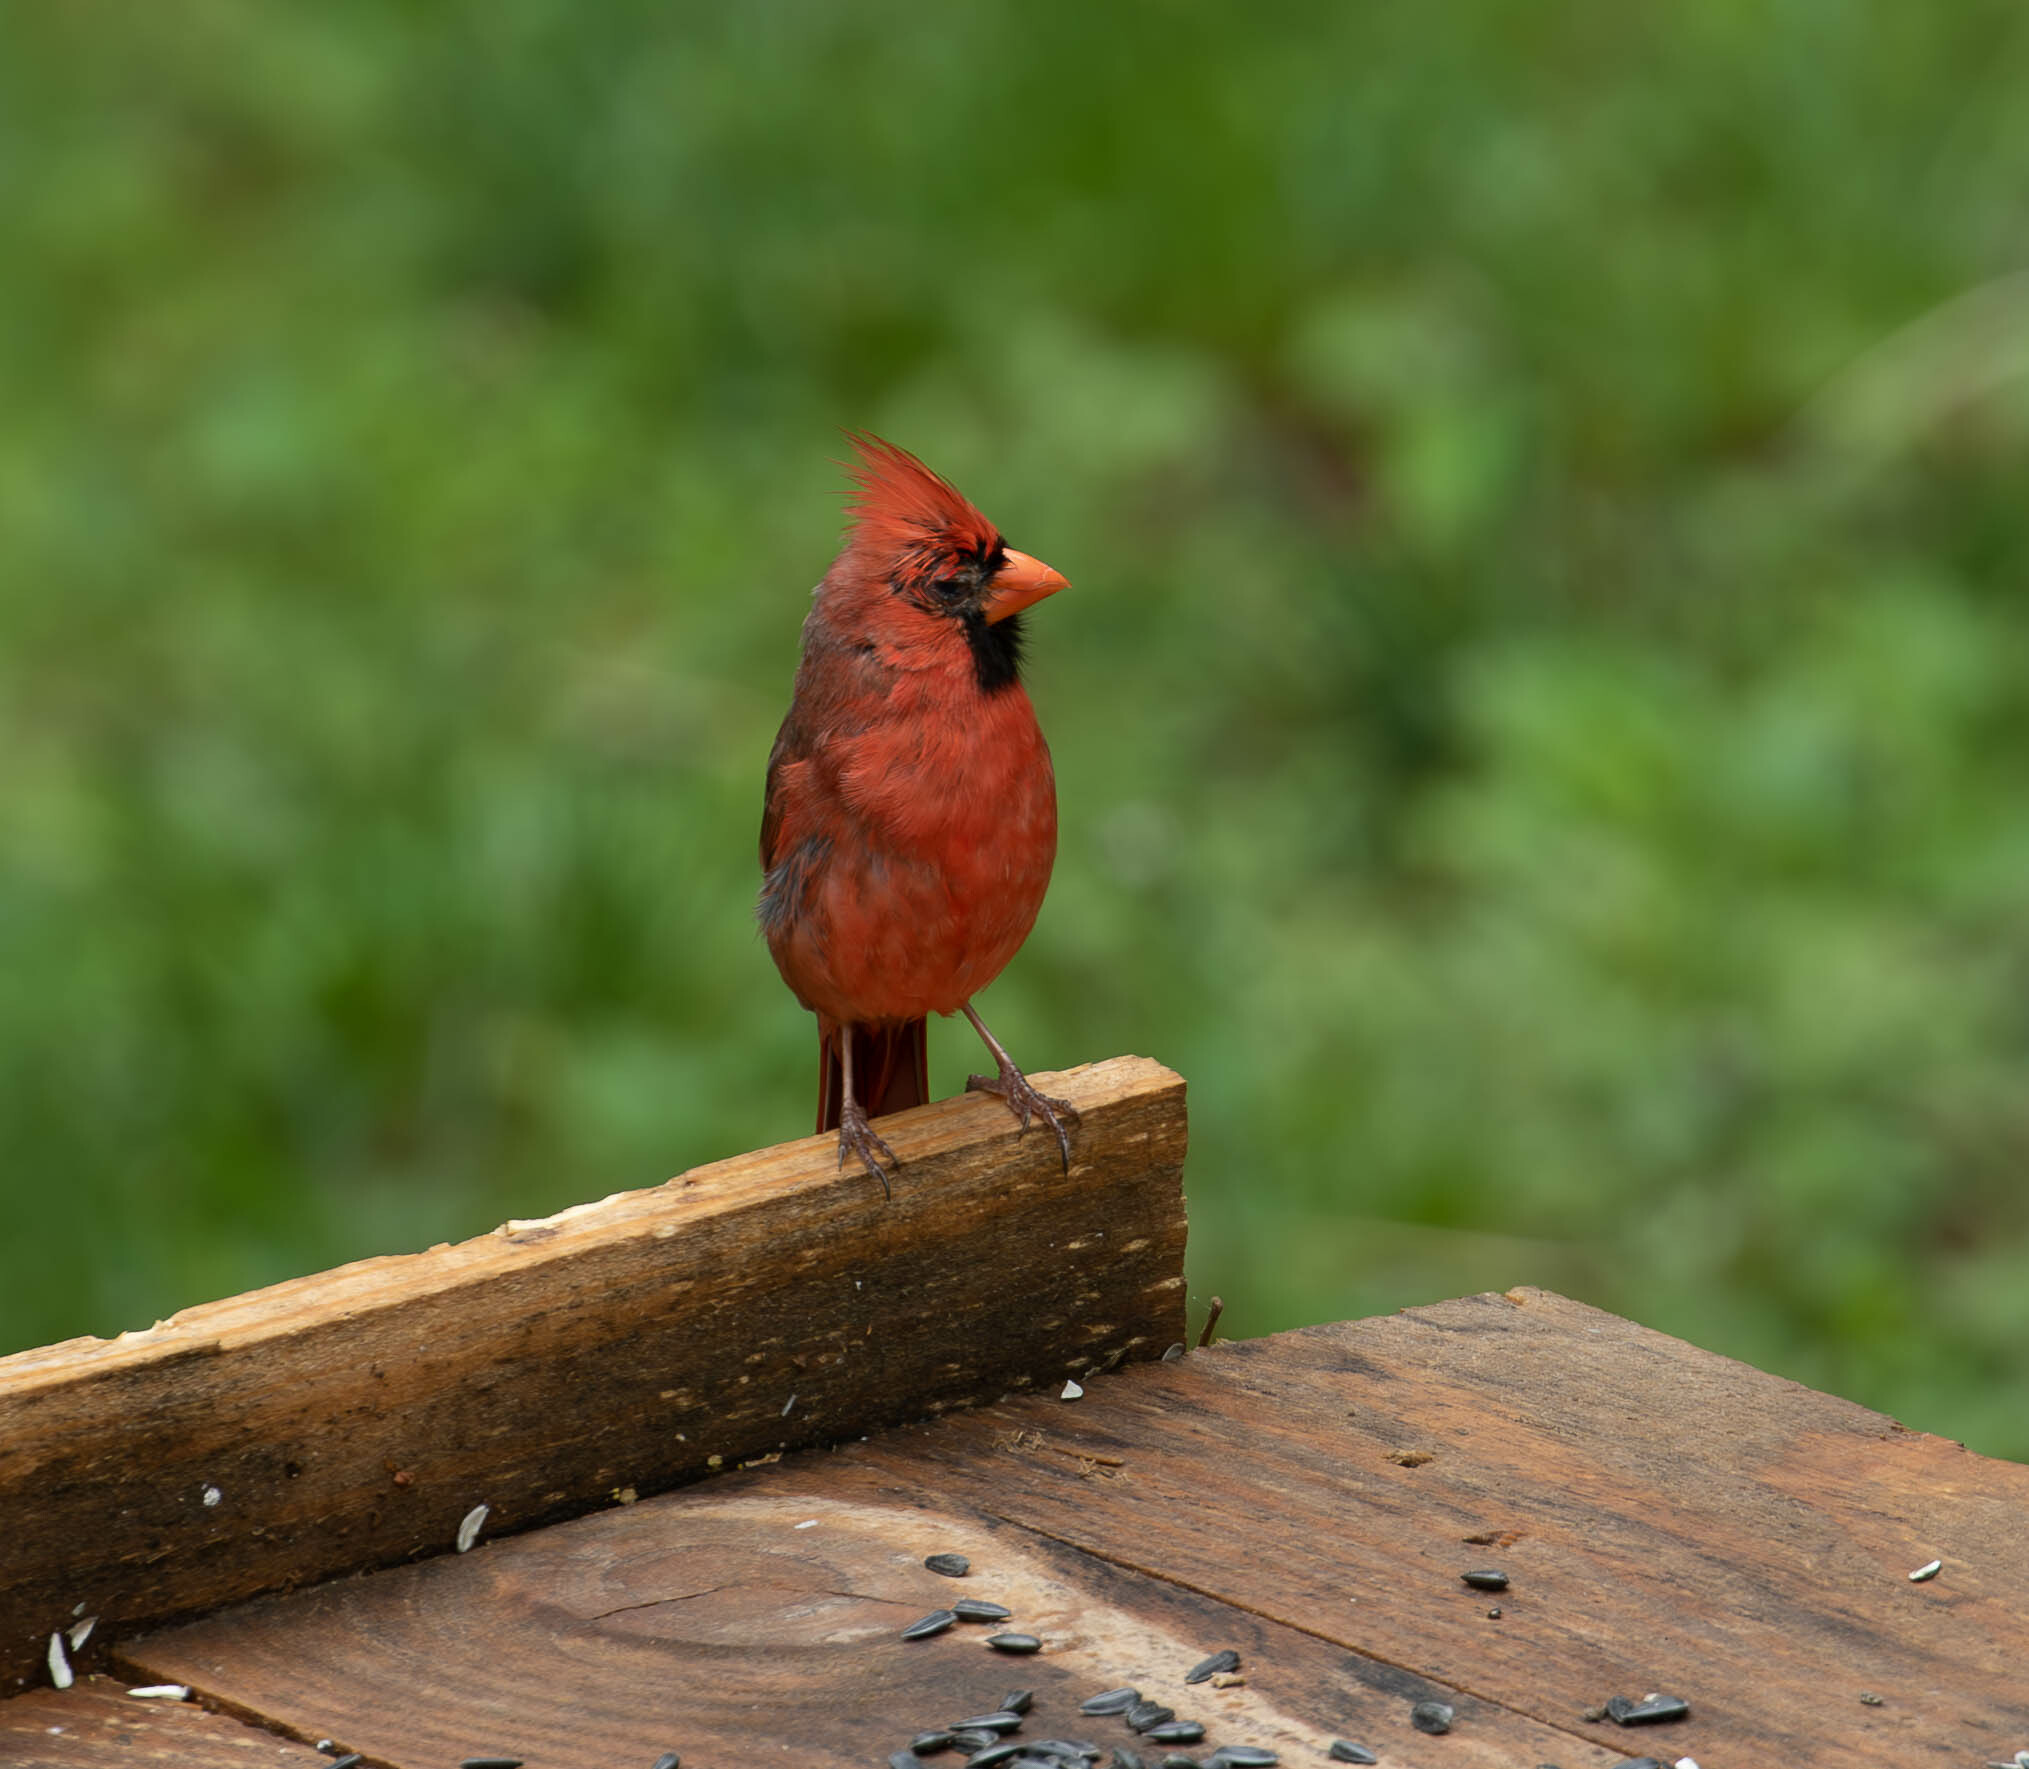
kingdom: Animalia
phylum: Chordata
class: Aves
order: Passeriformes
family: Cardinalidae
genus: Cardinalis
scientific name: Cardinalis cardinalis
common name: Northern cardinal
